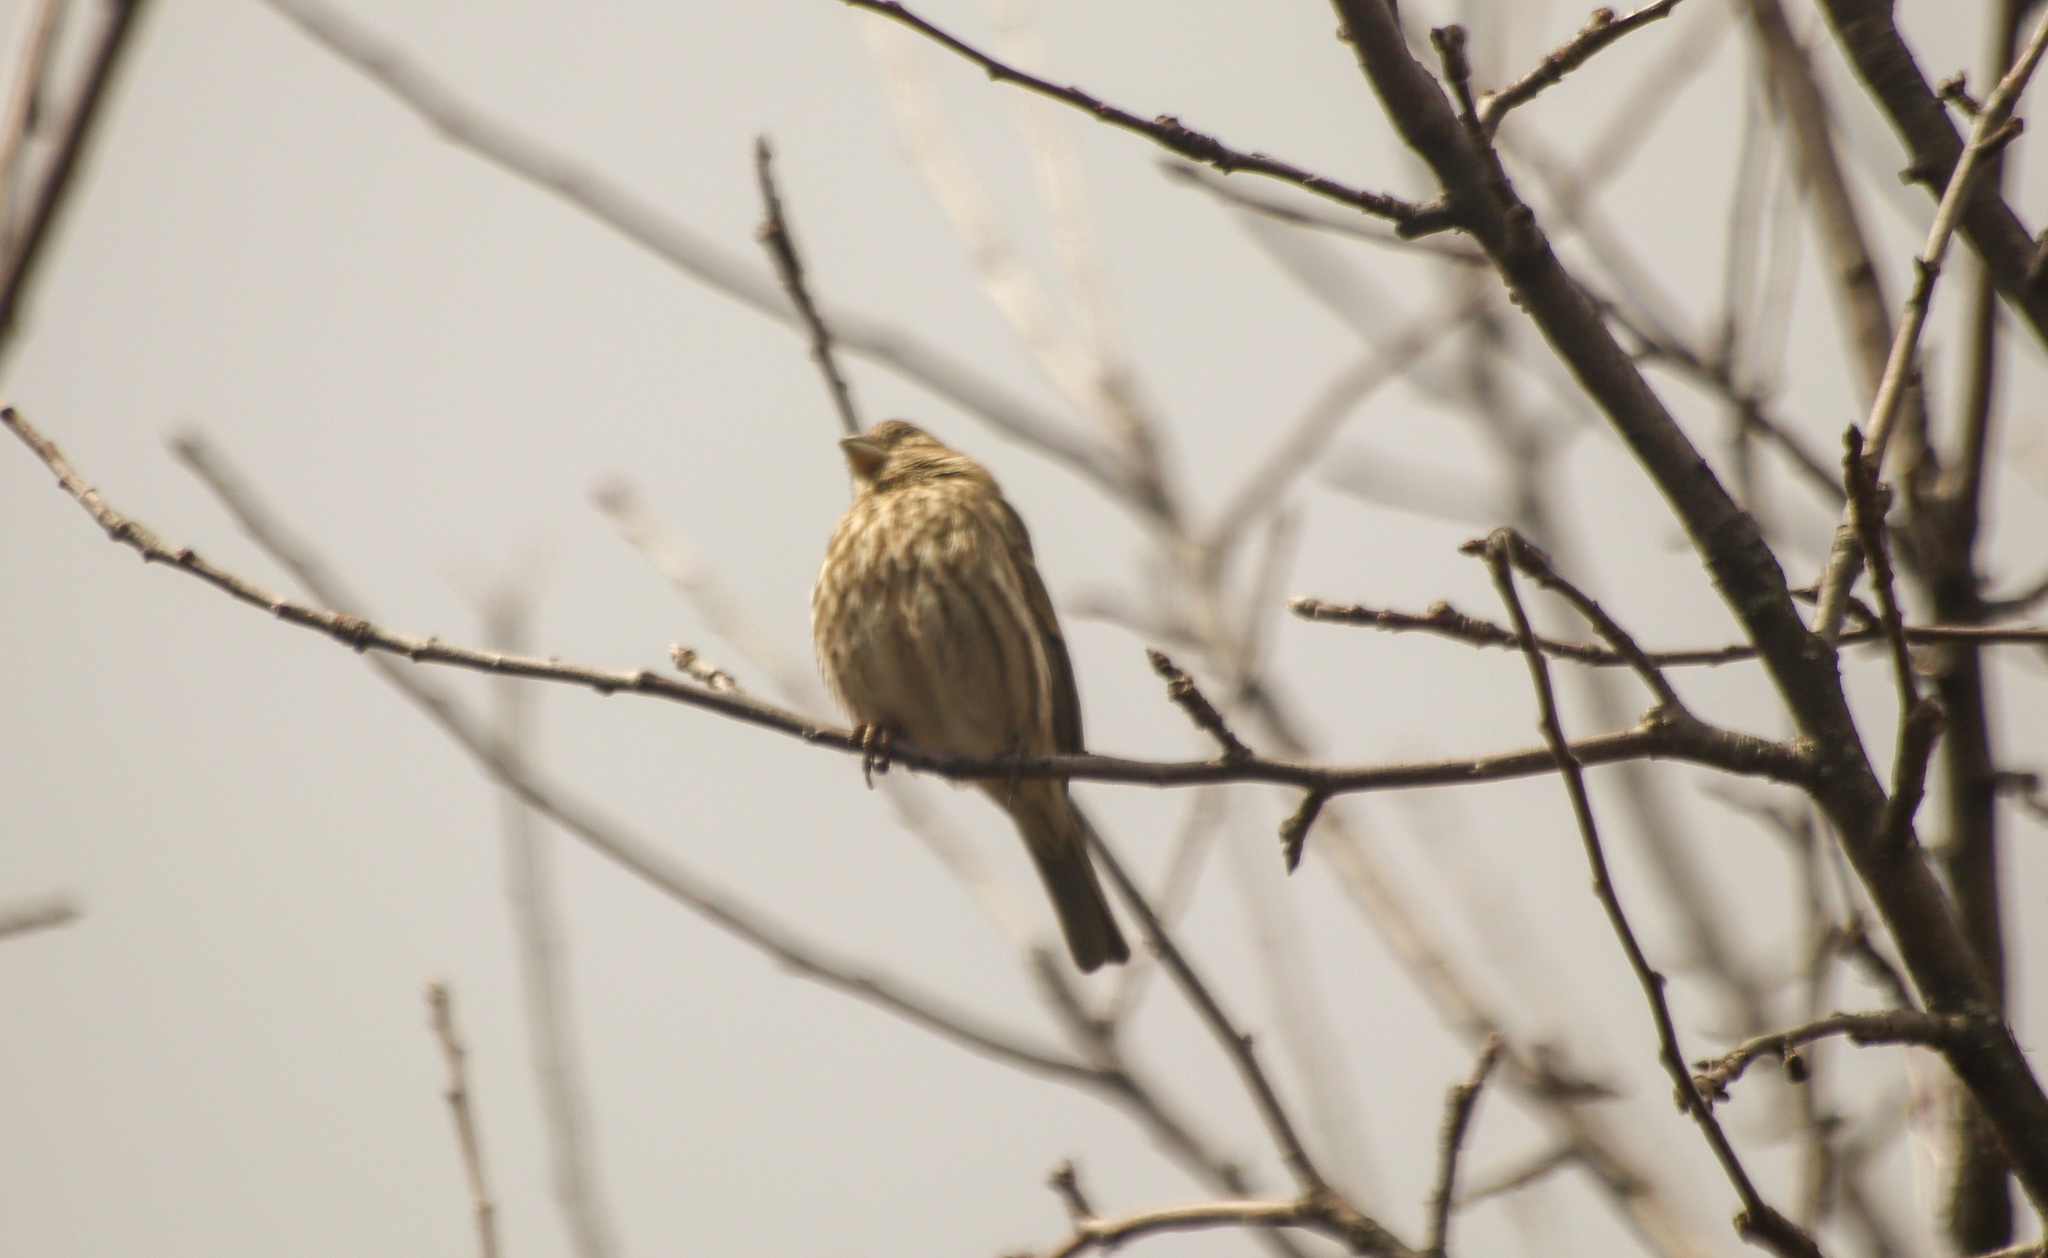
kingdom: Animalia
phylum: Chordata
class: Aves
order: Passeriformes
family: Fringillidae
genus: Haemorhous
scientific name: Haemorhous mexicanus
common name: House finch
